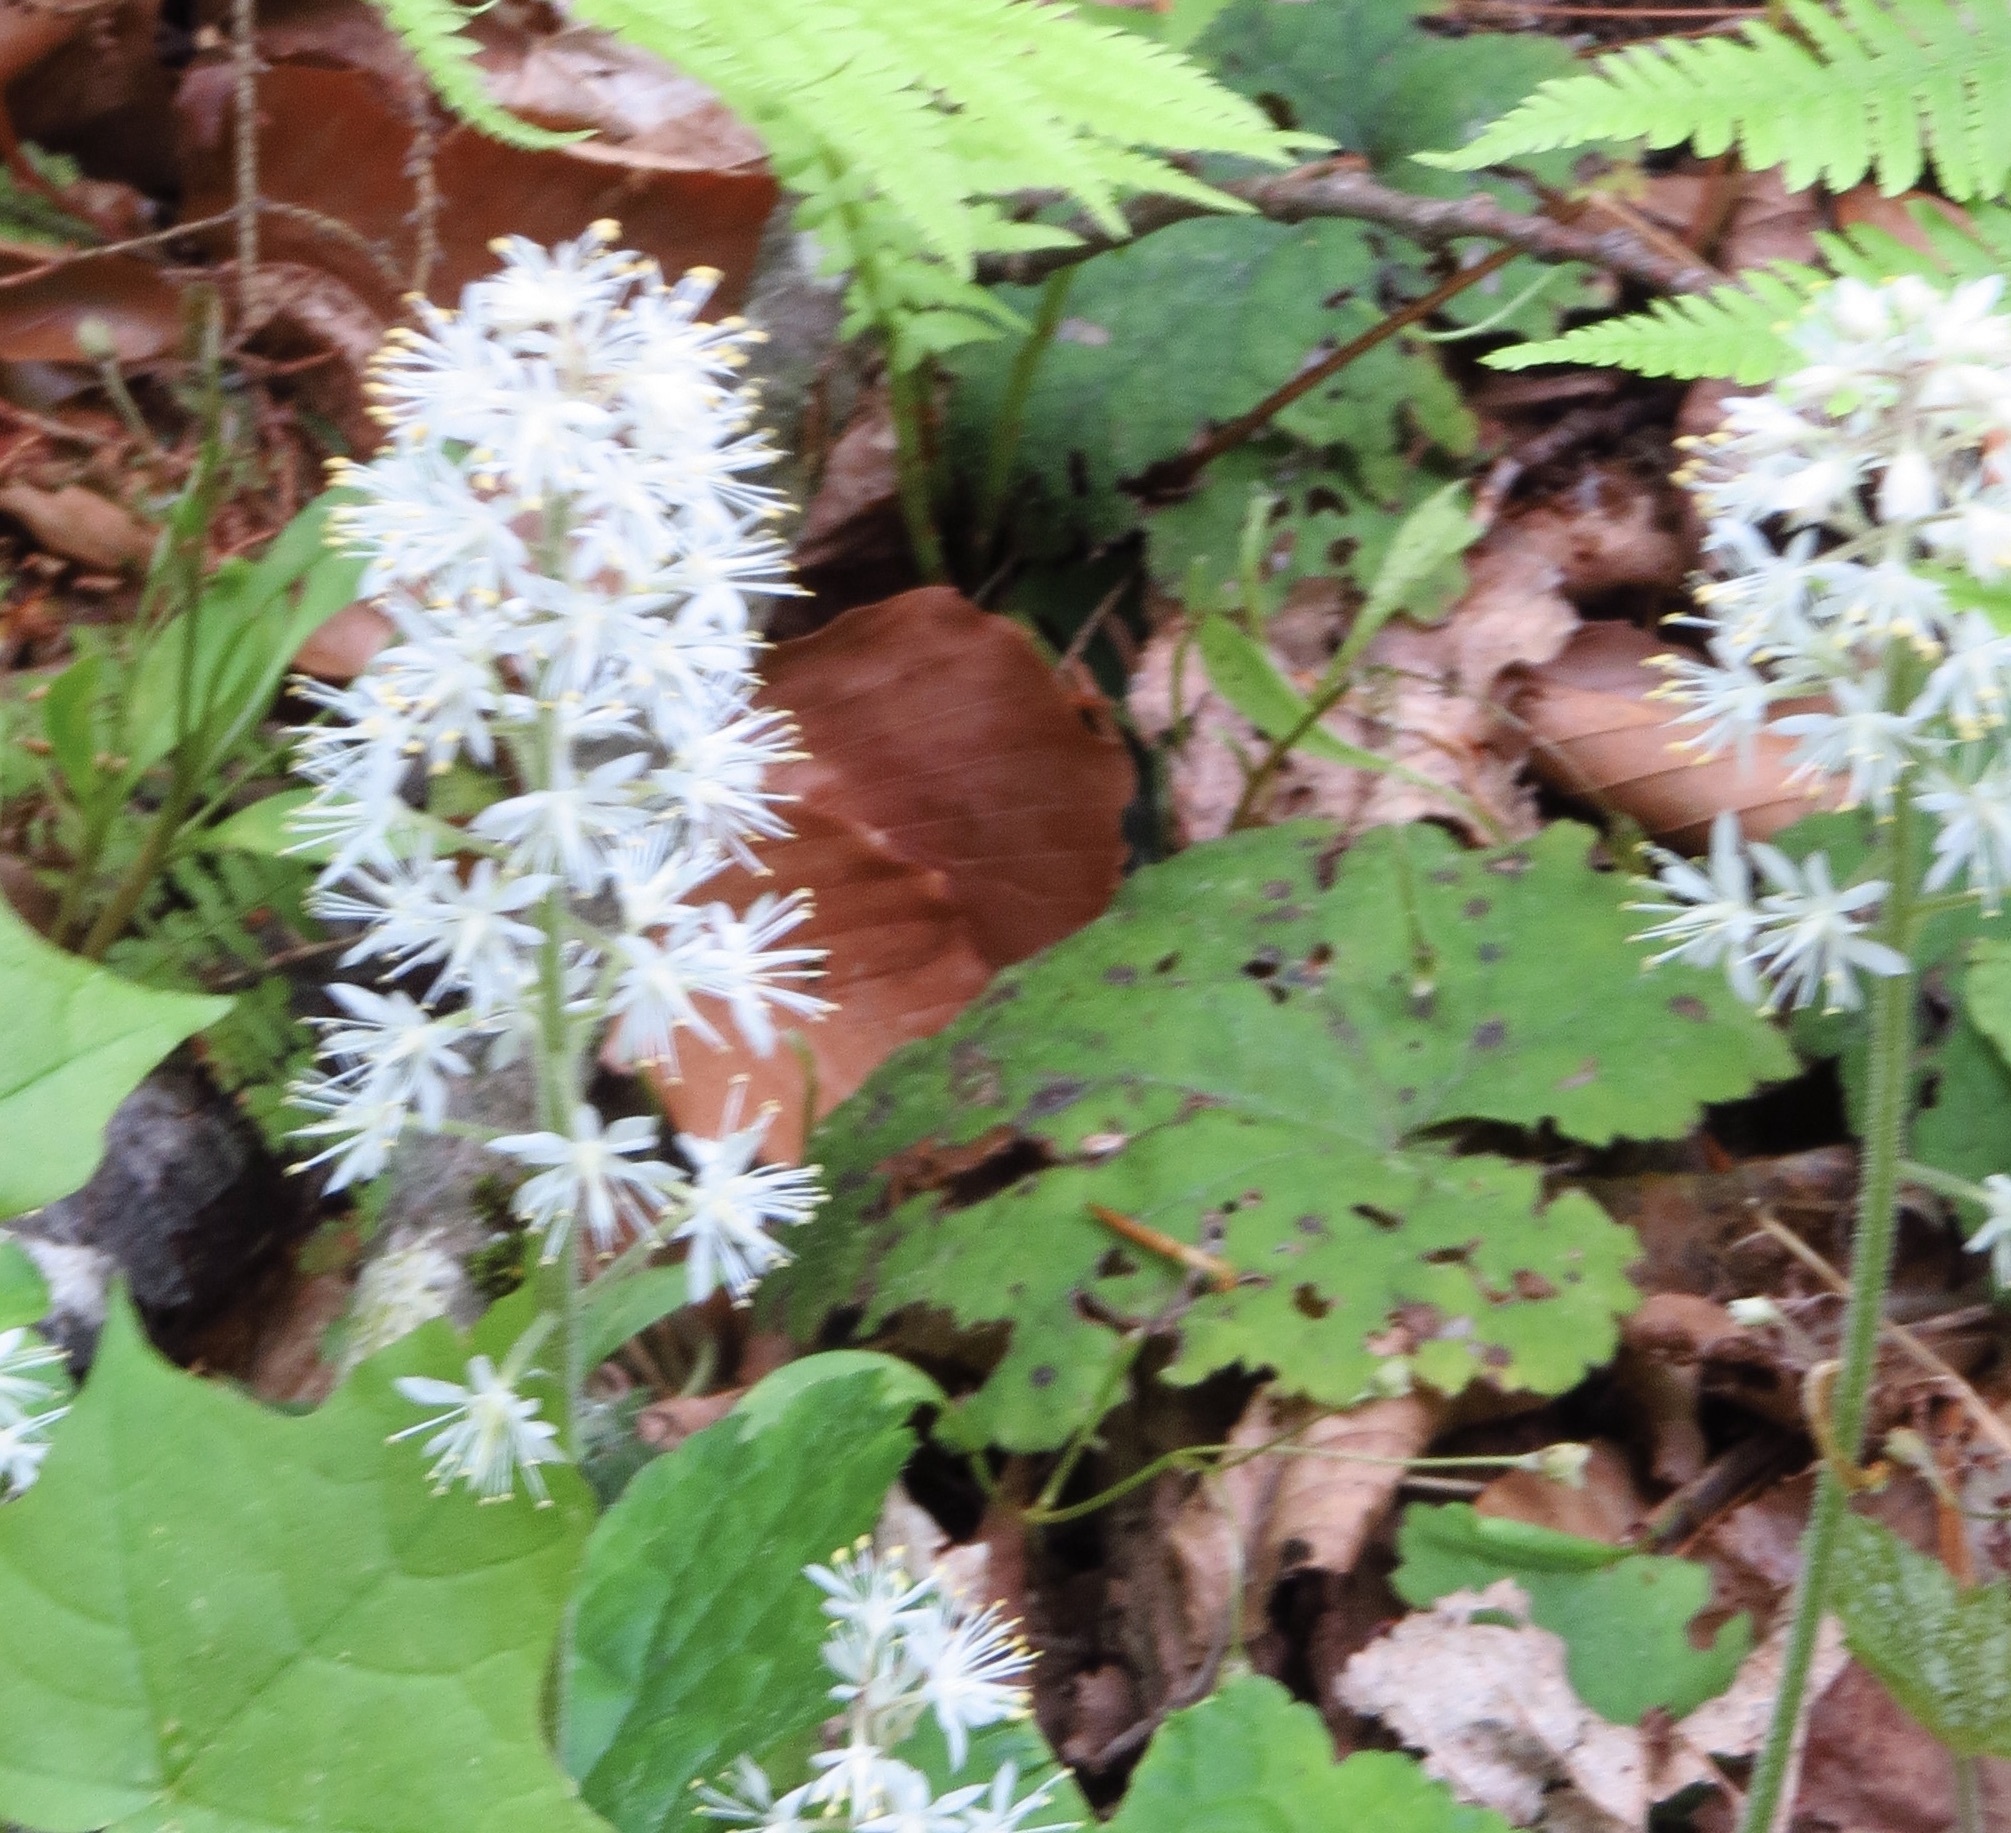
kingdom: Plantae
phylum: Tracheophyta
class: Magnoliopsida
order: Saxifragales
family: Saxifragaceae
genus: Tiarella
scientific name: Tiarella stolonifera
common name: Stoloniferous foamflower
